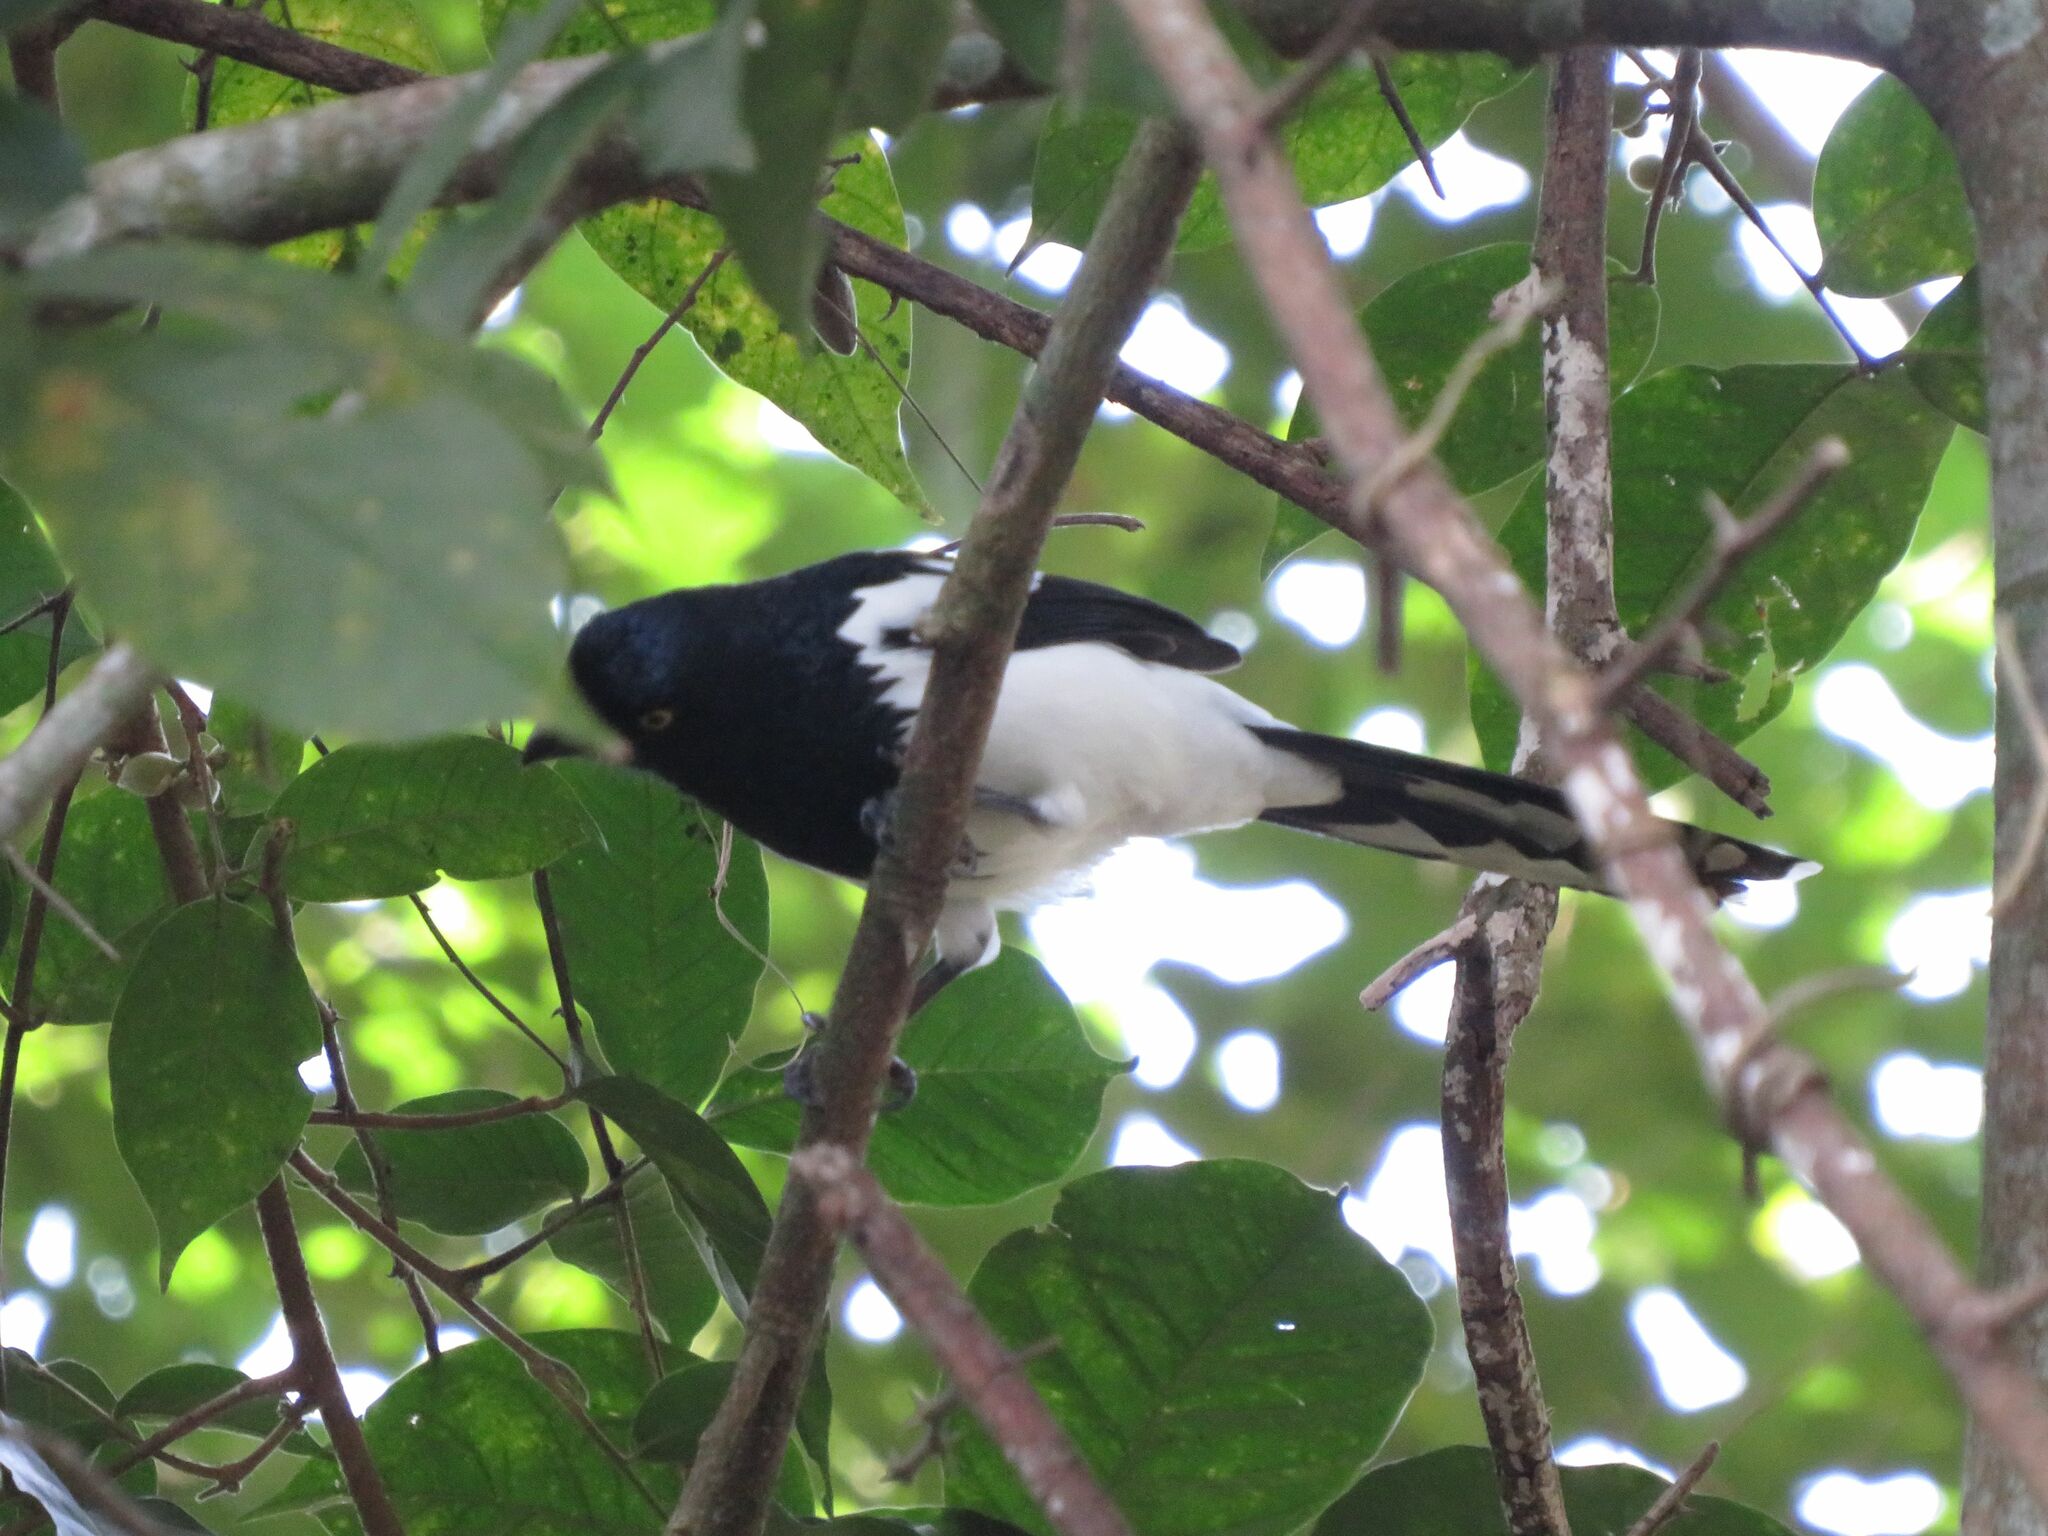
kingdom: Animalia
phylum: Chordata
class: Aves
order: Passeriformes
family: Thraupidae
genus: Cissopis
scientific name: Cissopis leverianus
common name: Magpie tanager
